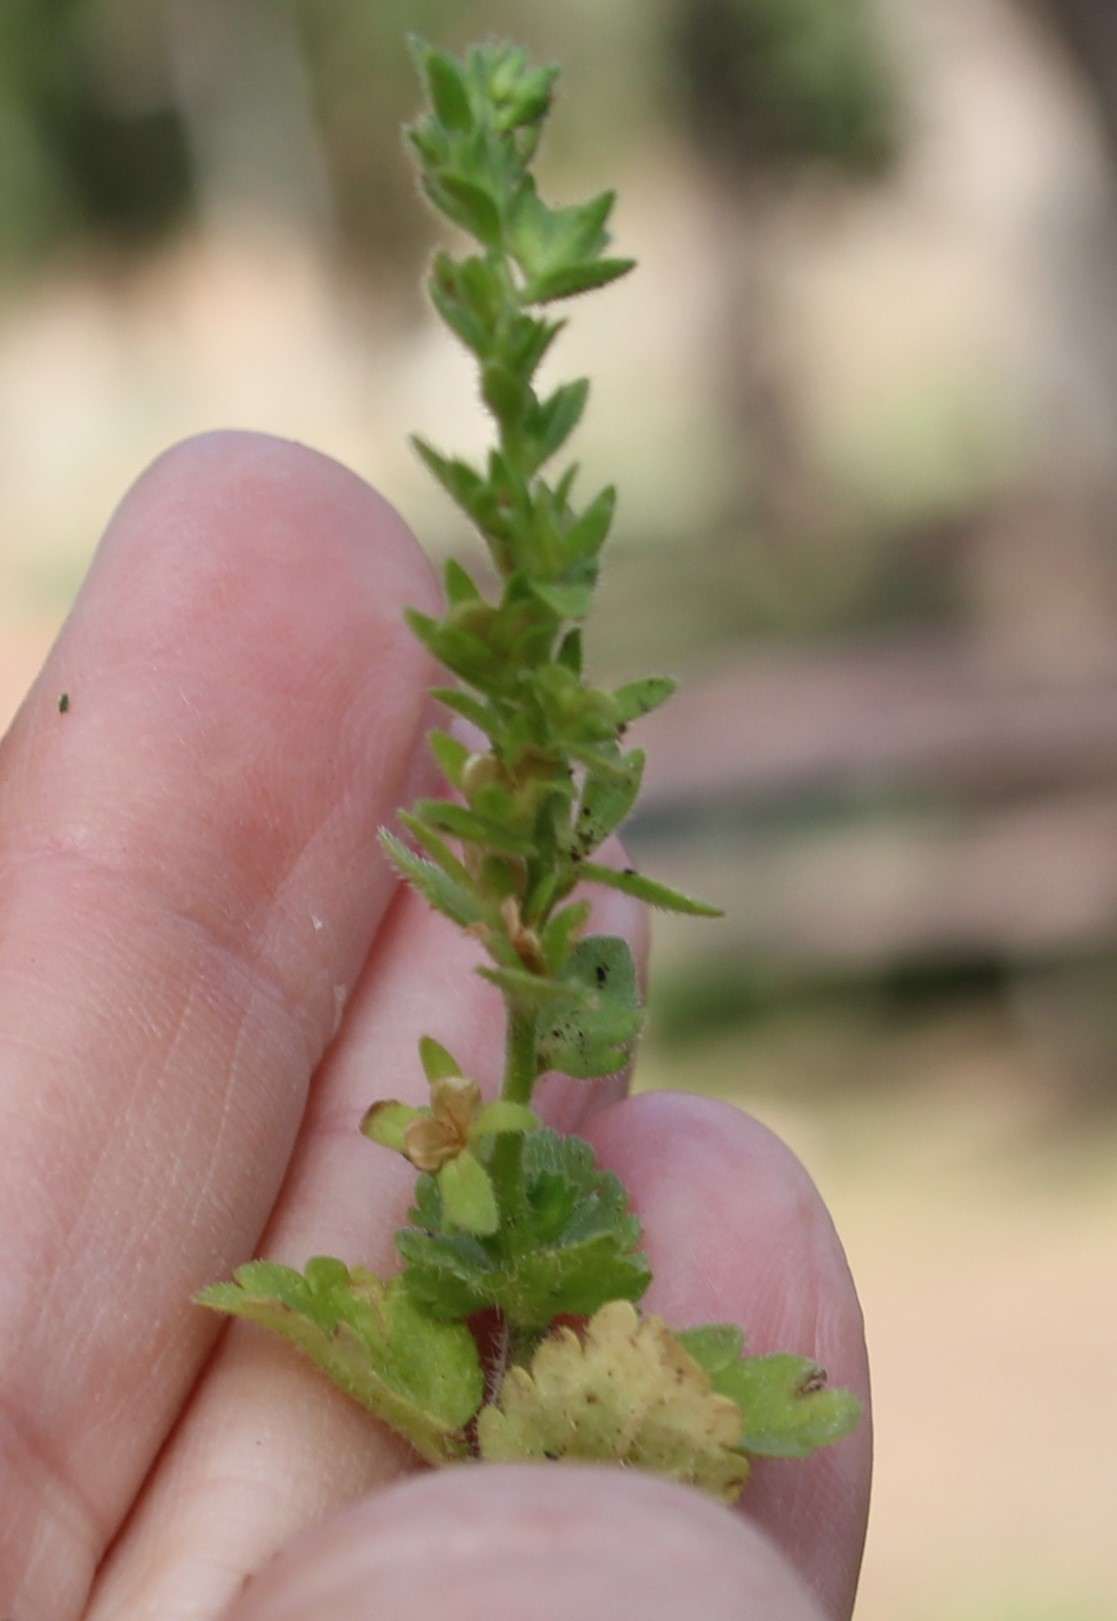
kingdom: Plantae
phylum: Tracheophyta
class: Magnoliopsida
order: Lamiales
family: Plantaginaceae
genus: Veronica
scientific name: Veronica arvensis
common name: Corn speedwell
